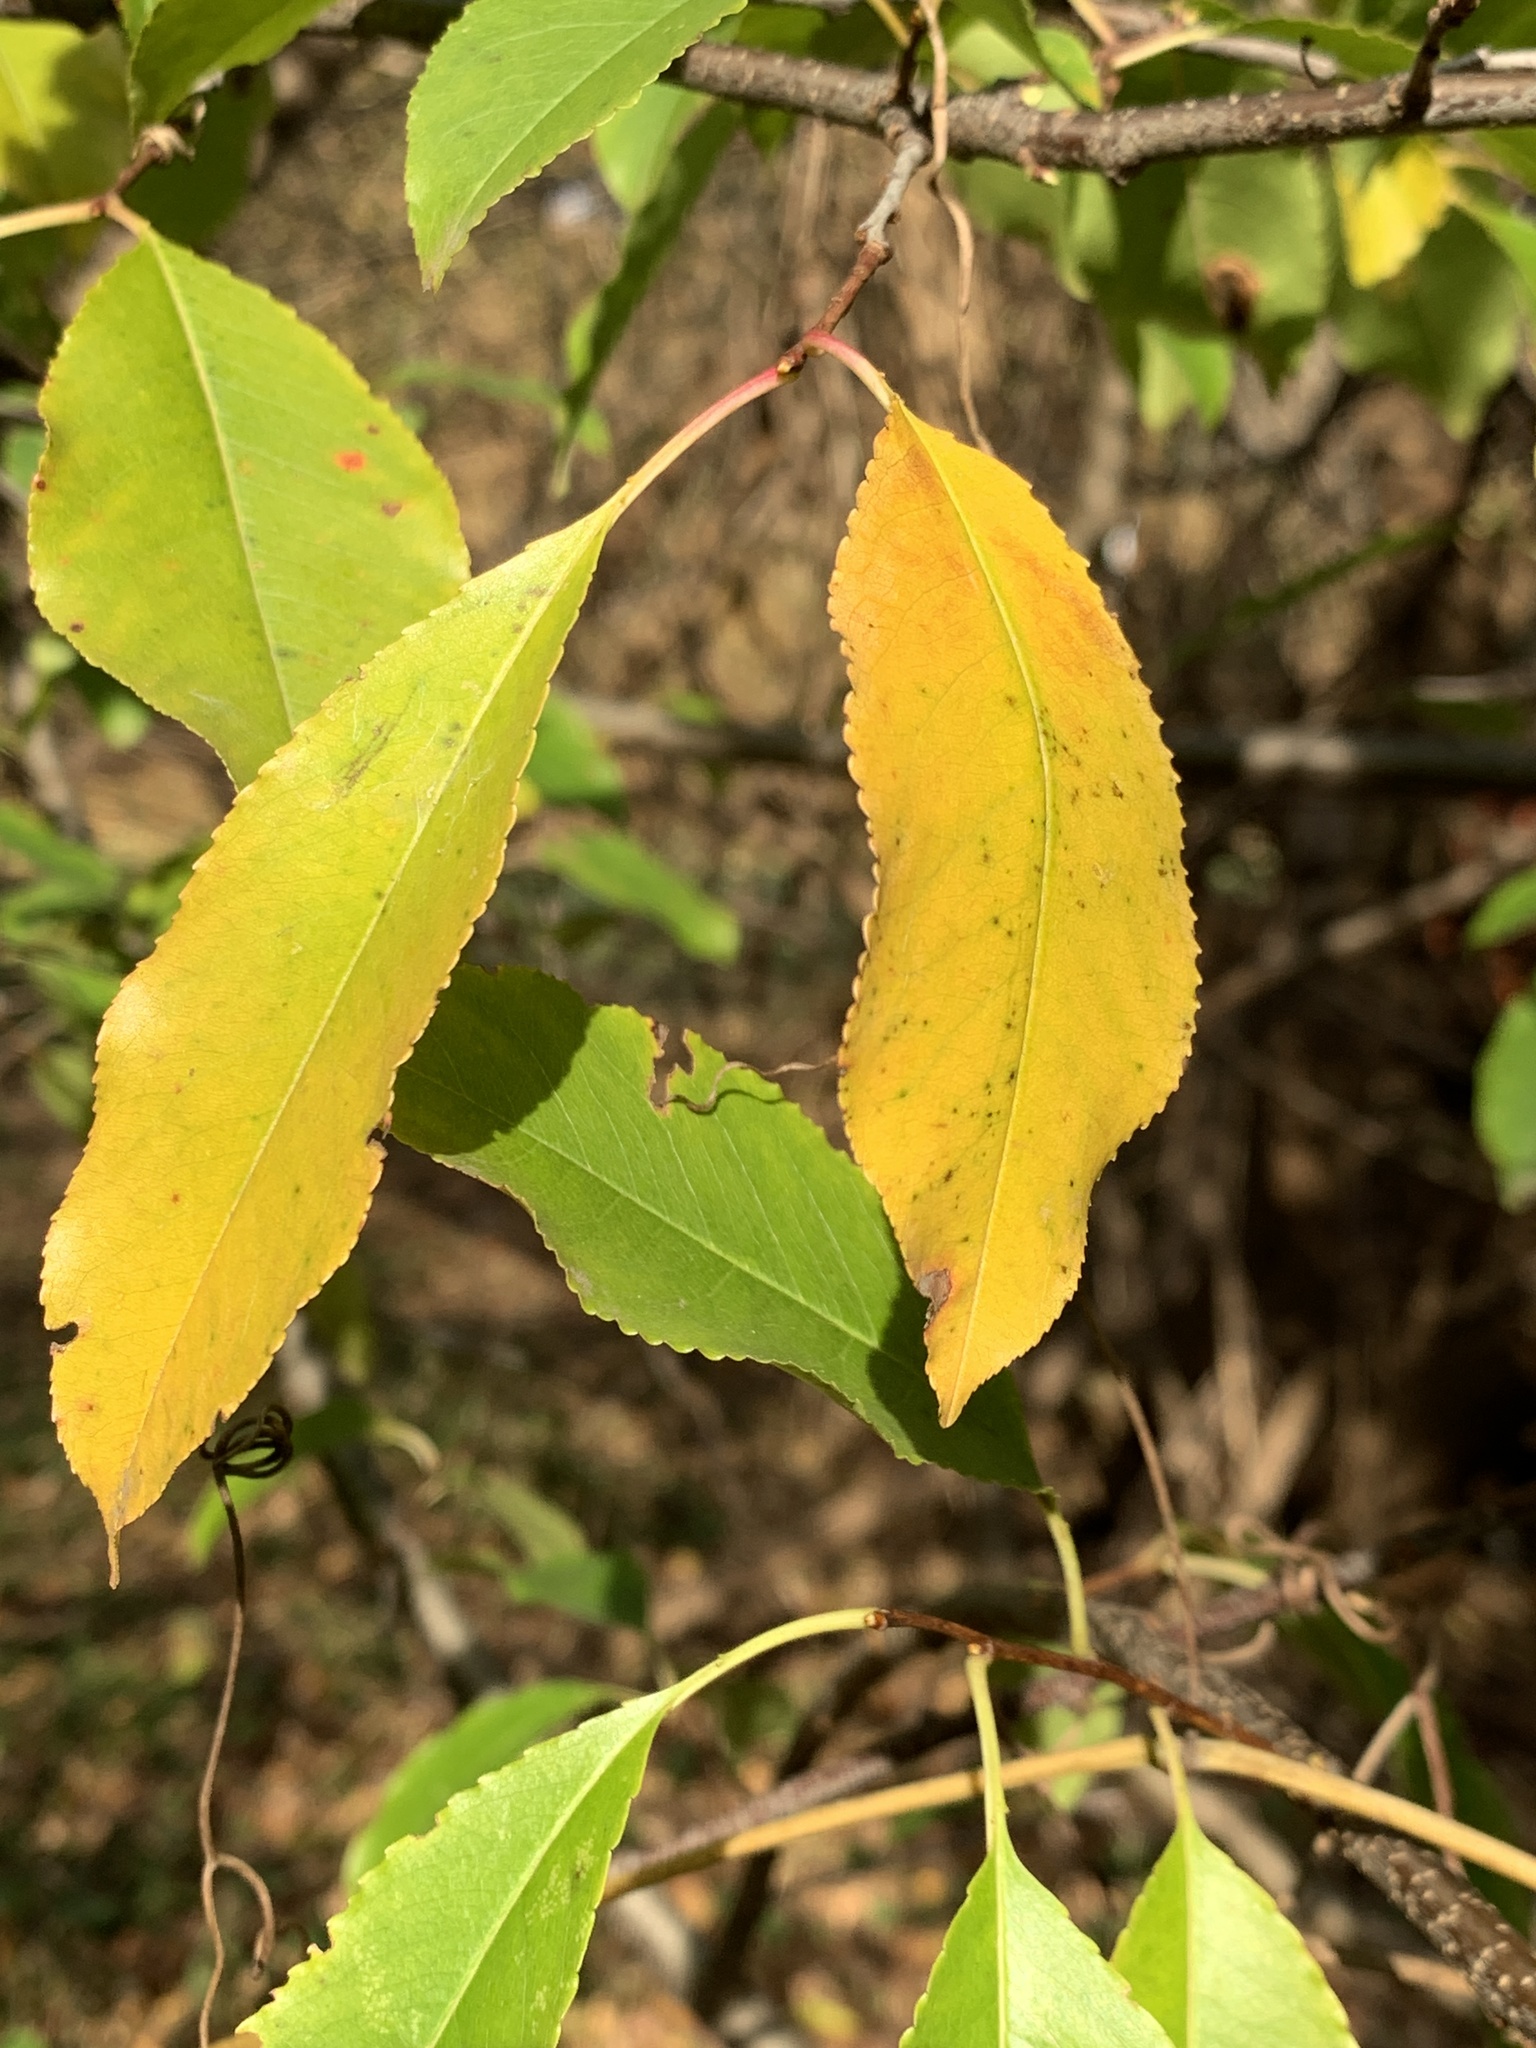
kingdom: Plantae
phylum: Tracheophyta
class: Magnoliopsida
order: Rosales
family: Rosaceae
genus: Prunus
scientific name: Prunus serotina
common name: Black cherry
